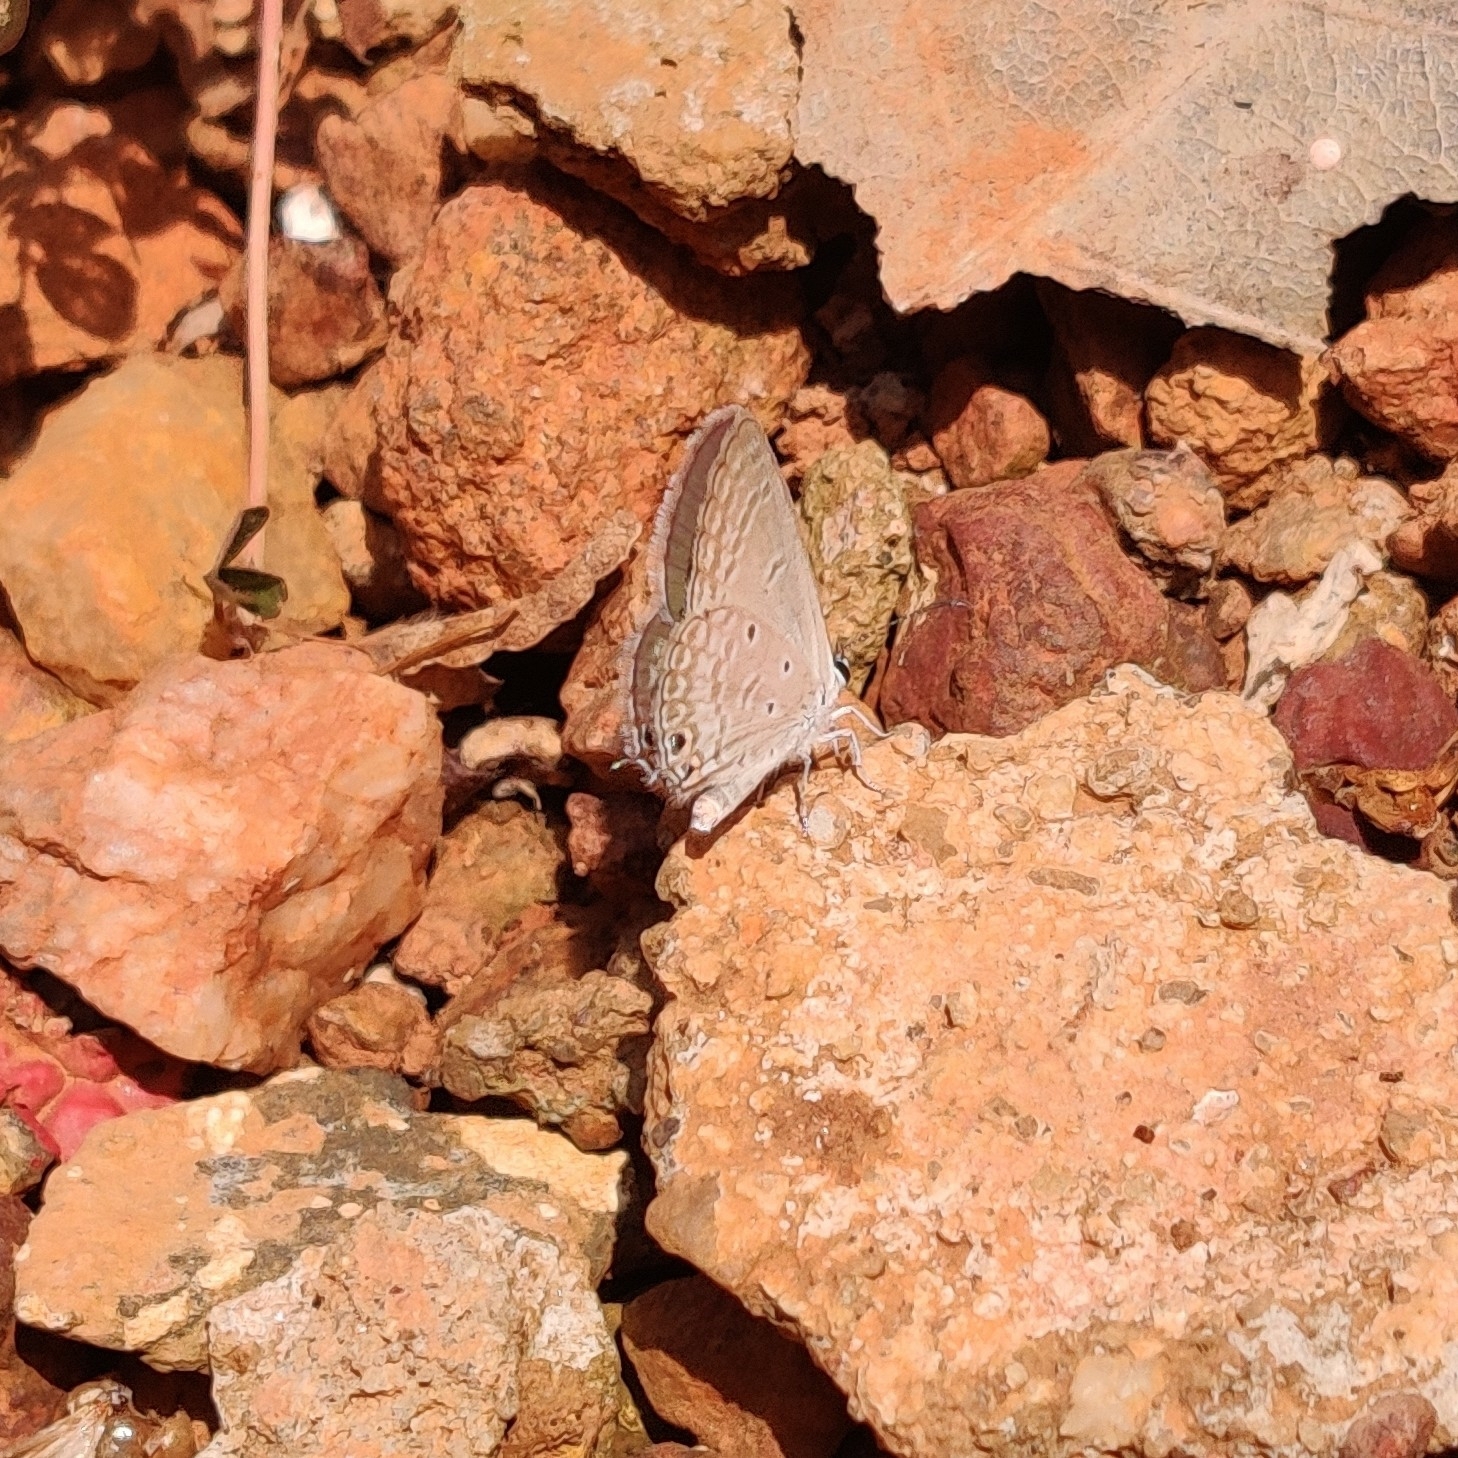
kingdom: Animalia
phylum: Arthropoda
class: Insecta
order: Lepidoptera
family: Lycaenidae
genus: Euchrysops
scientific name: Euchrysops cnejus
